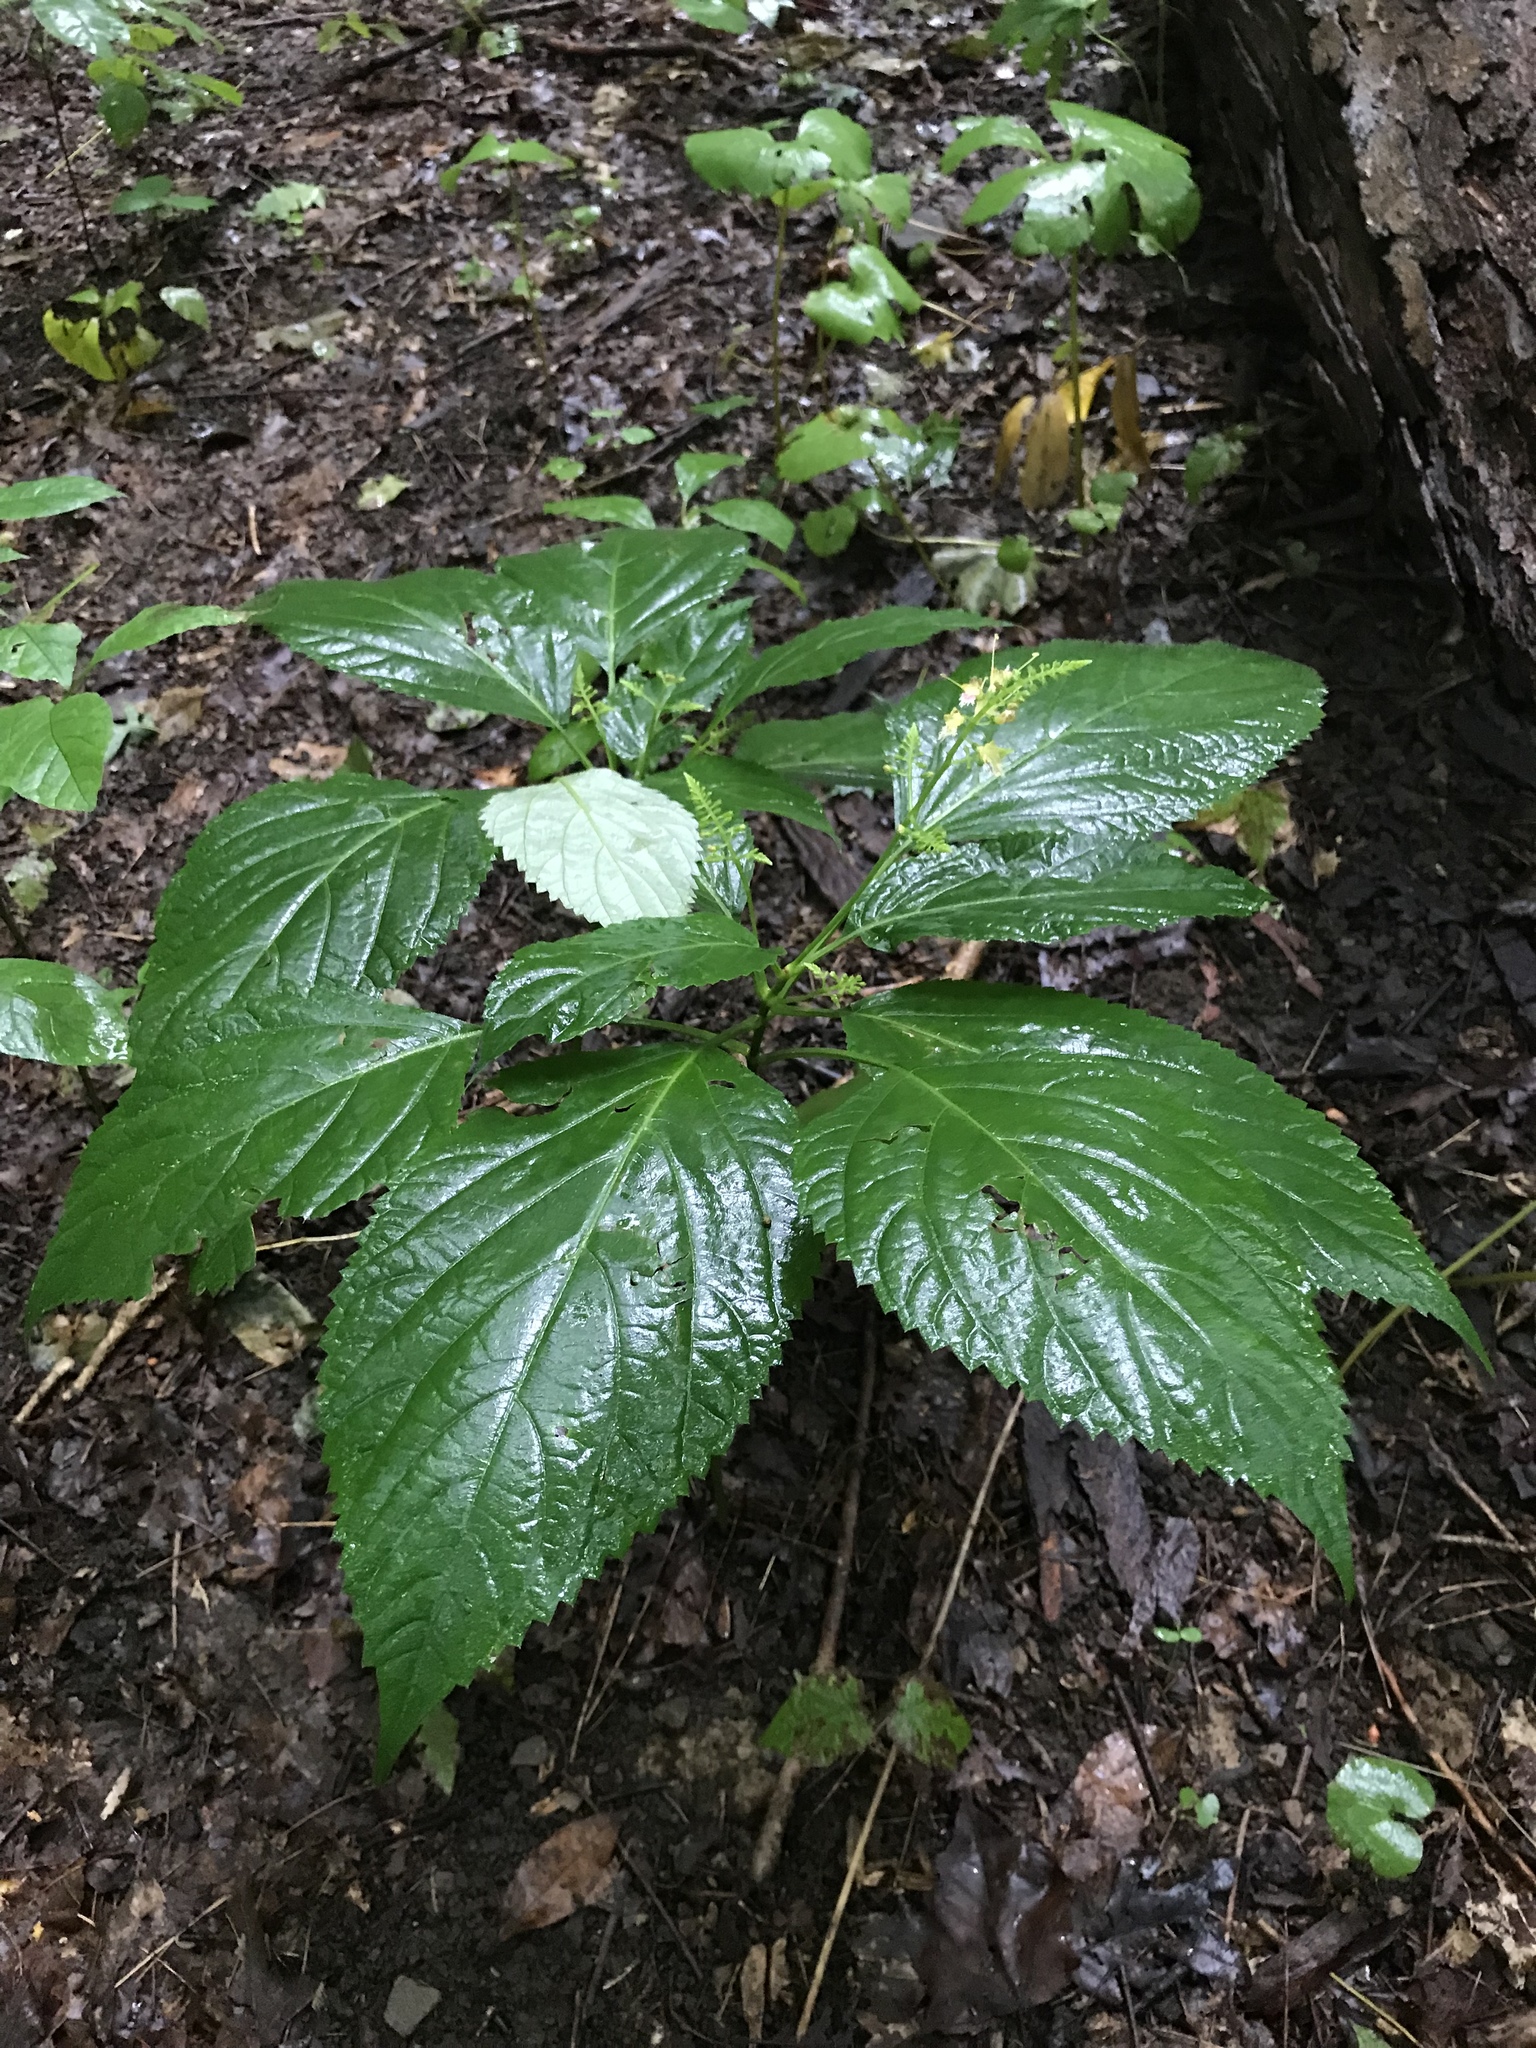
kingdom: Plantae
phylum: Tracheophyta
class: Magnoliopsida
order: Lamiales
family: Lamiaceae
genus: Collinsonia
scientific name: Collinsonia canadensis
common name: Northern horsebalm
